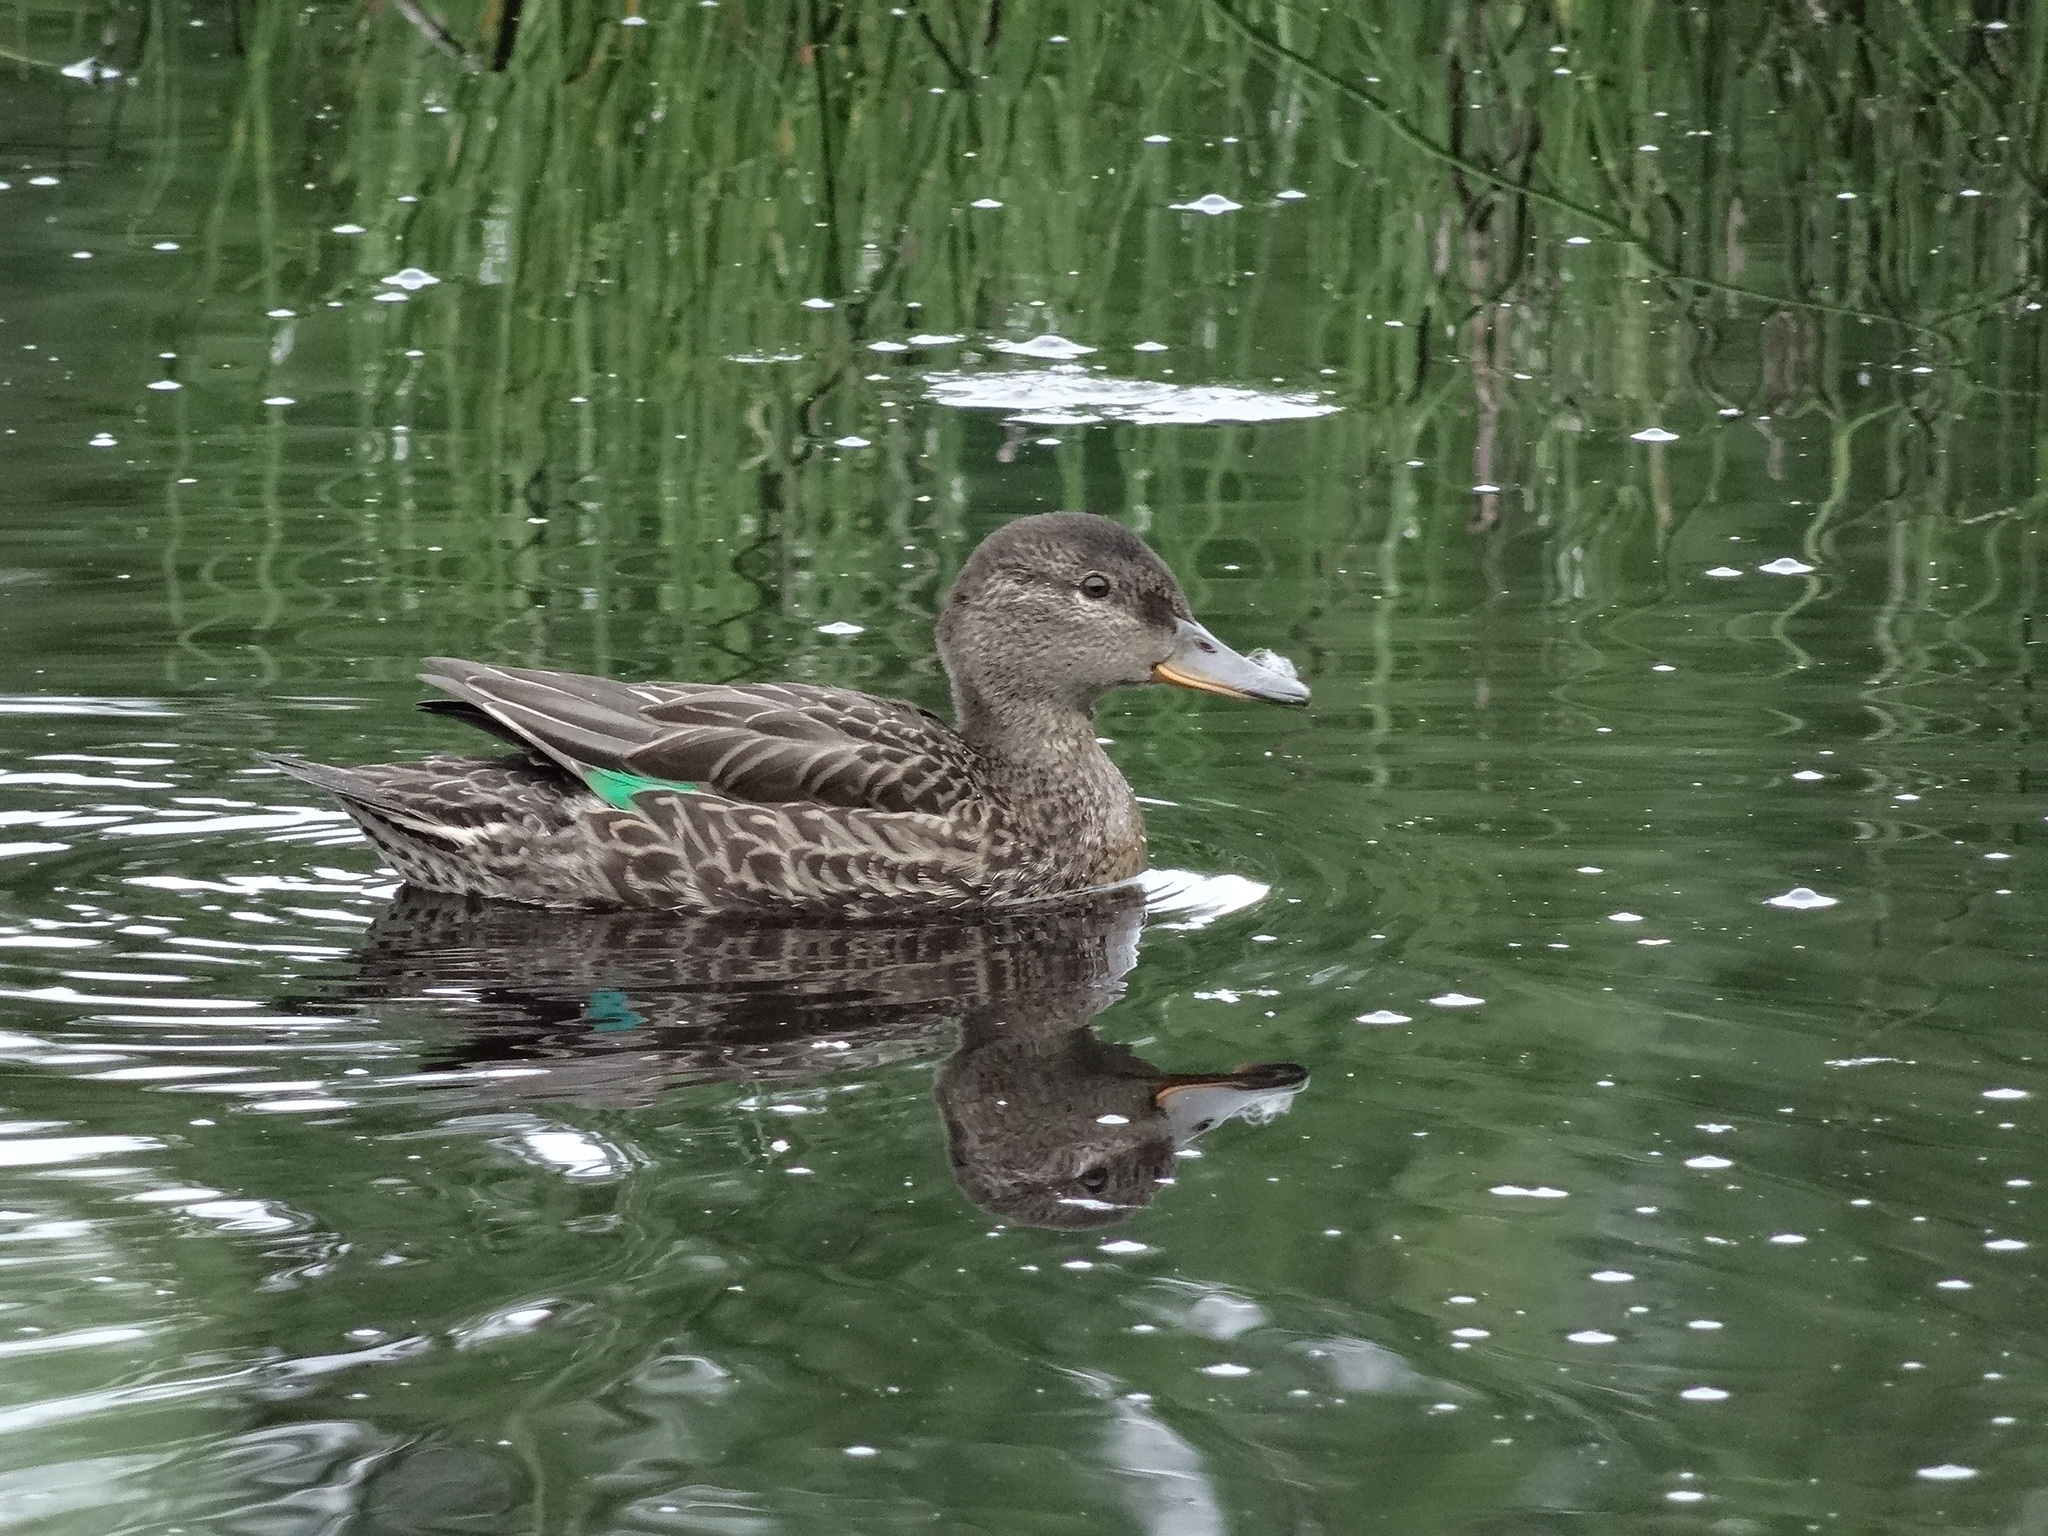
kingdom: Animalia
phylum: Chordata
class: Aves
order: Anseriformes
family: Anatidae
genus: Anas
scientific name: Anas crecca
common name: Eurasian teal
